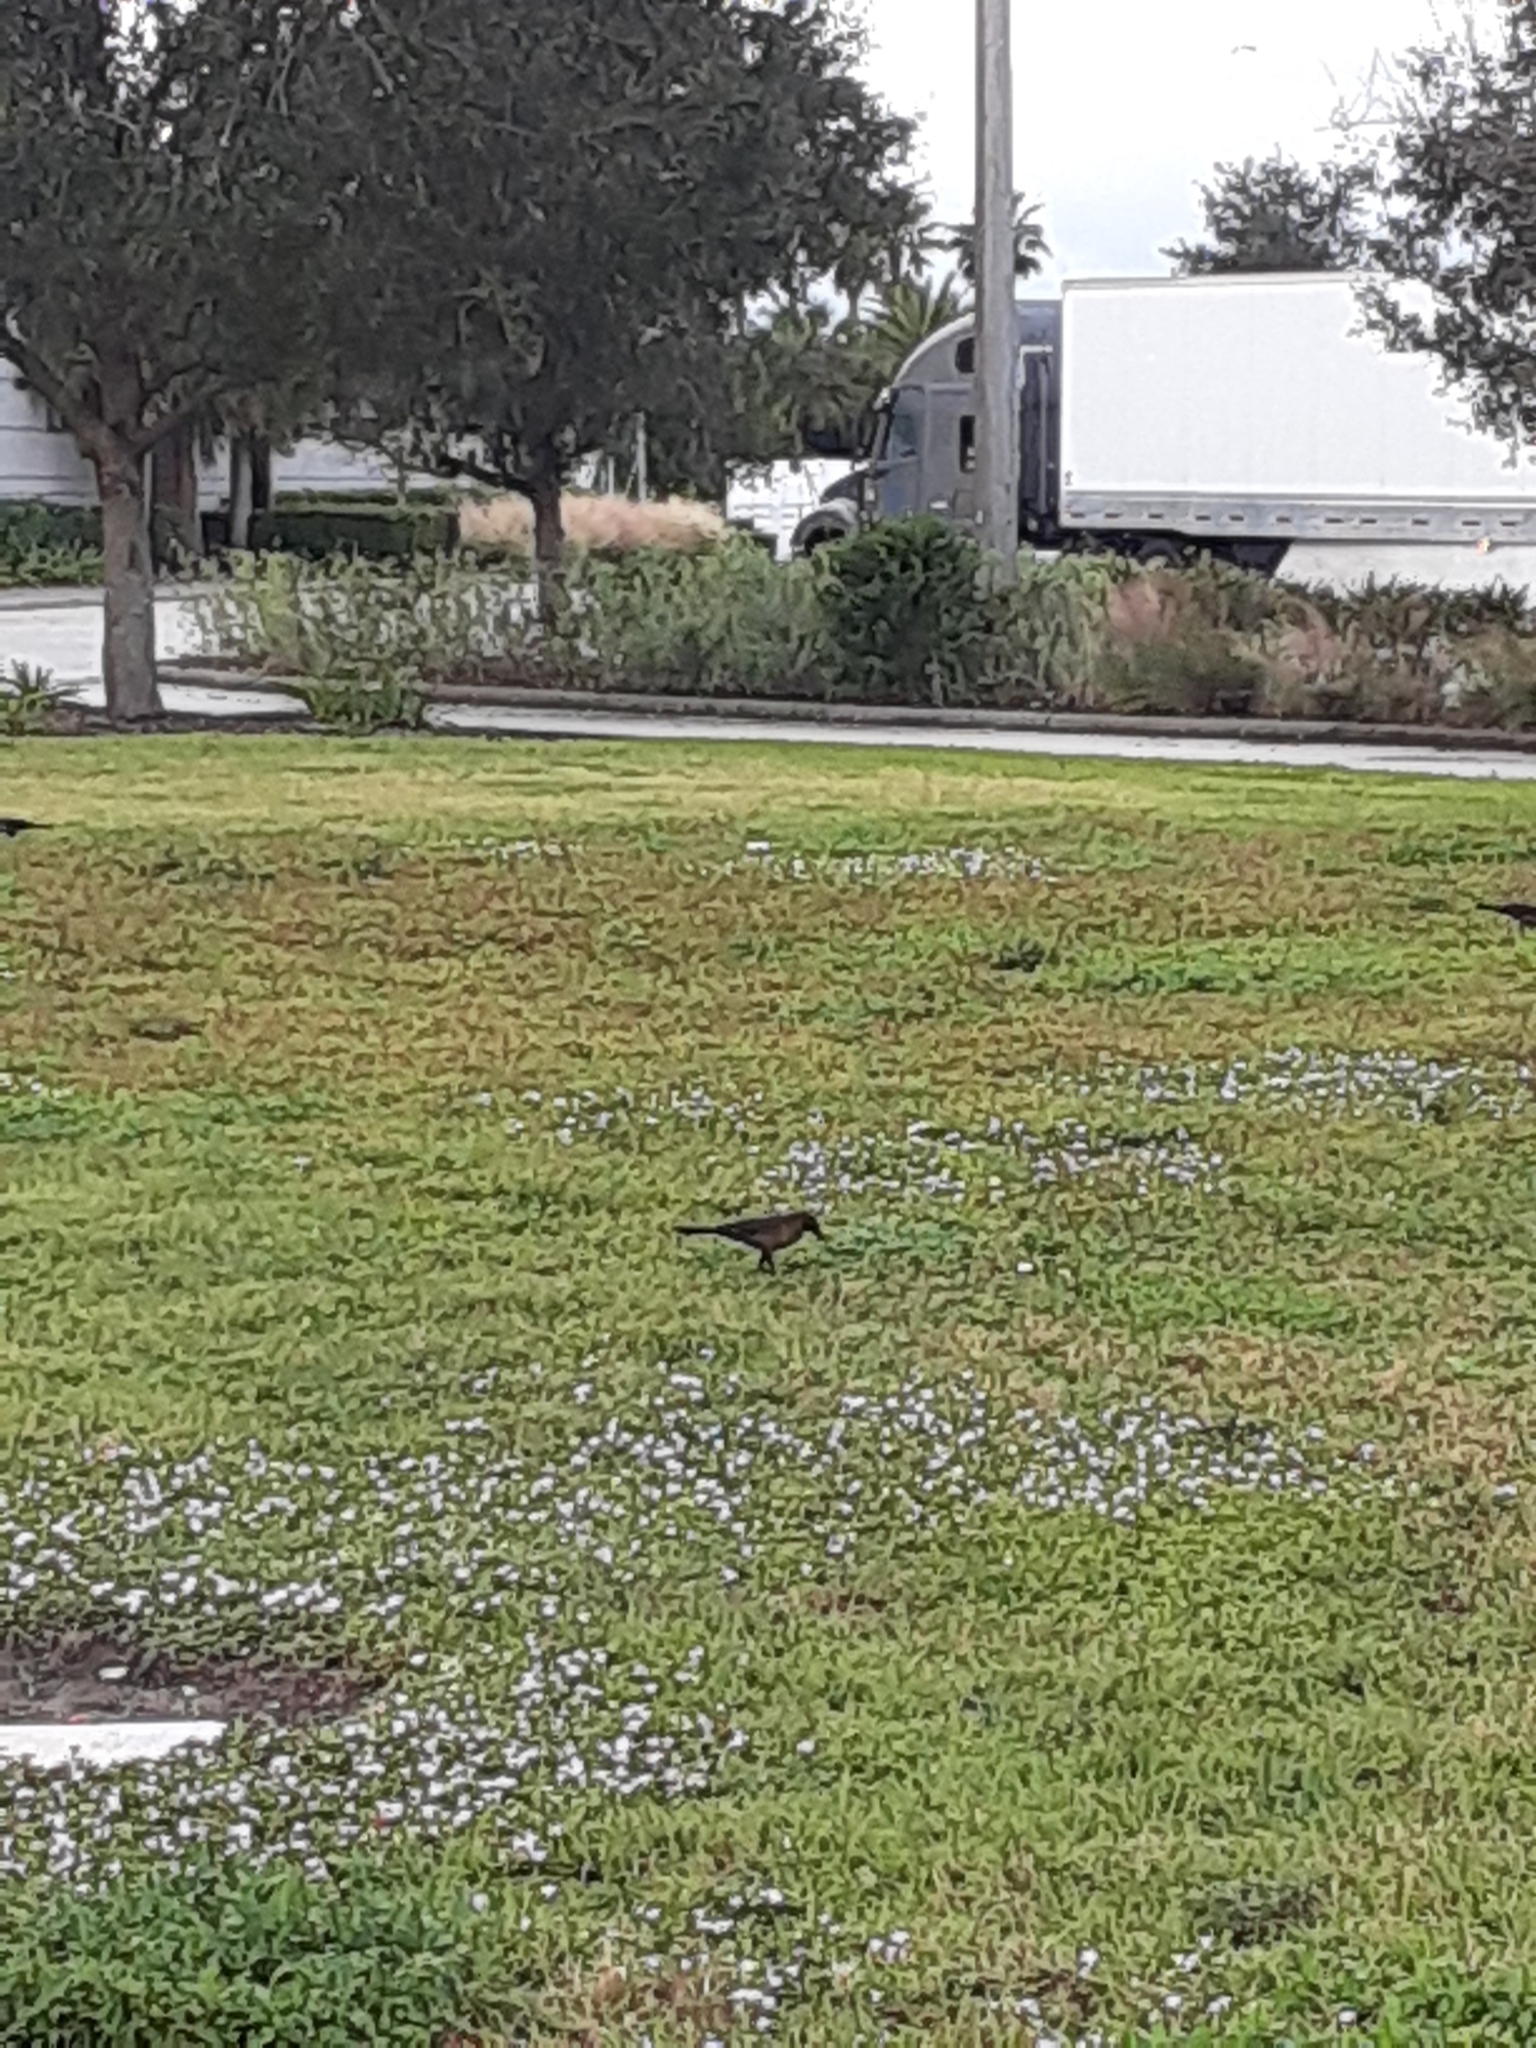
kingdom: Animalia
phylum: Chordata
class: Aves
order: Passeriformes
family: Icteridae
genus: Quiscalus
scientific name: Quiscalus major
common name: Boat-tailed grackle
